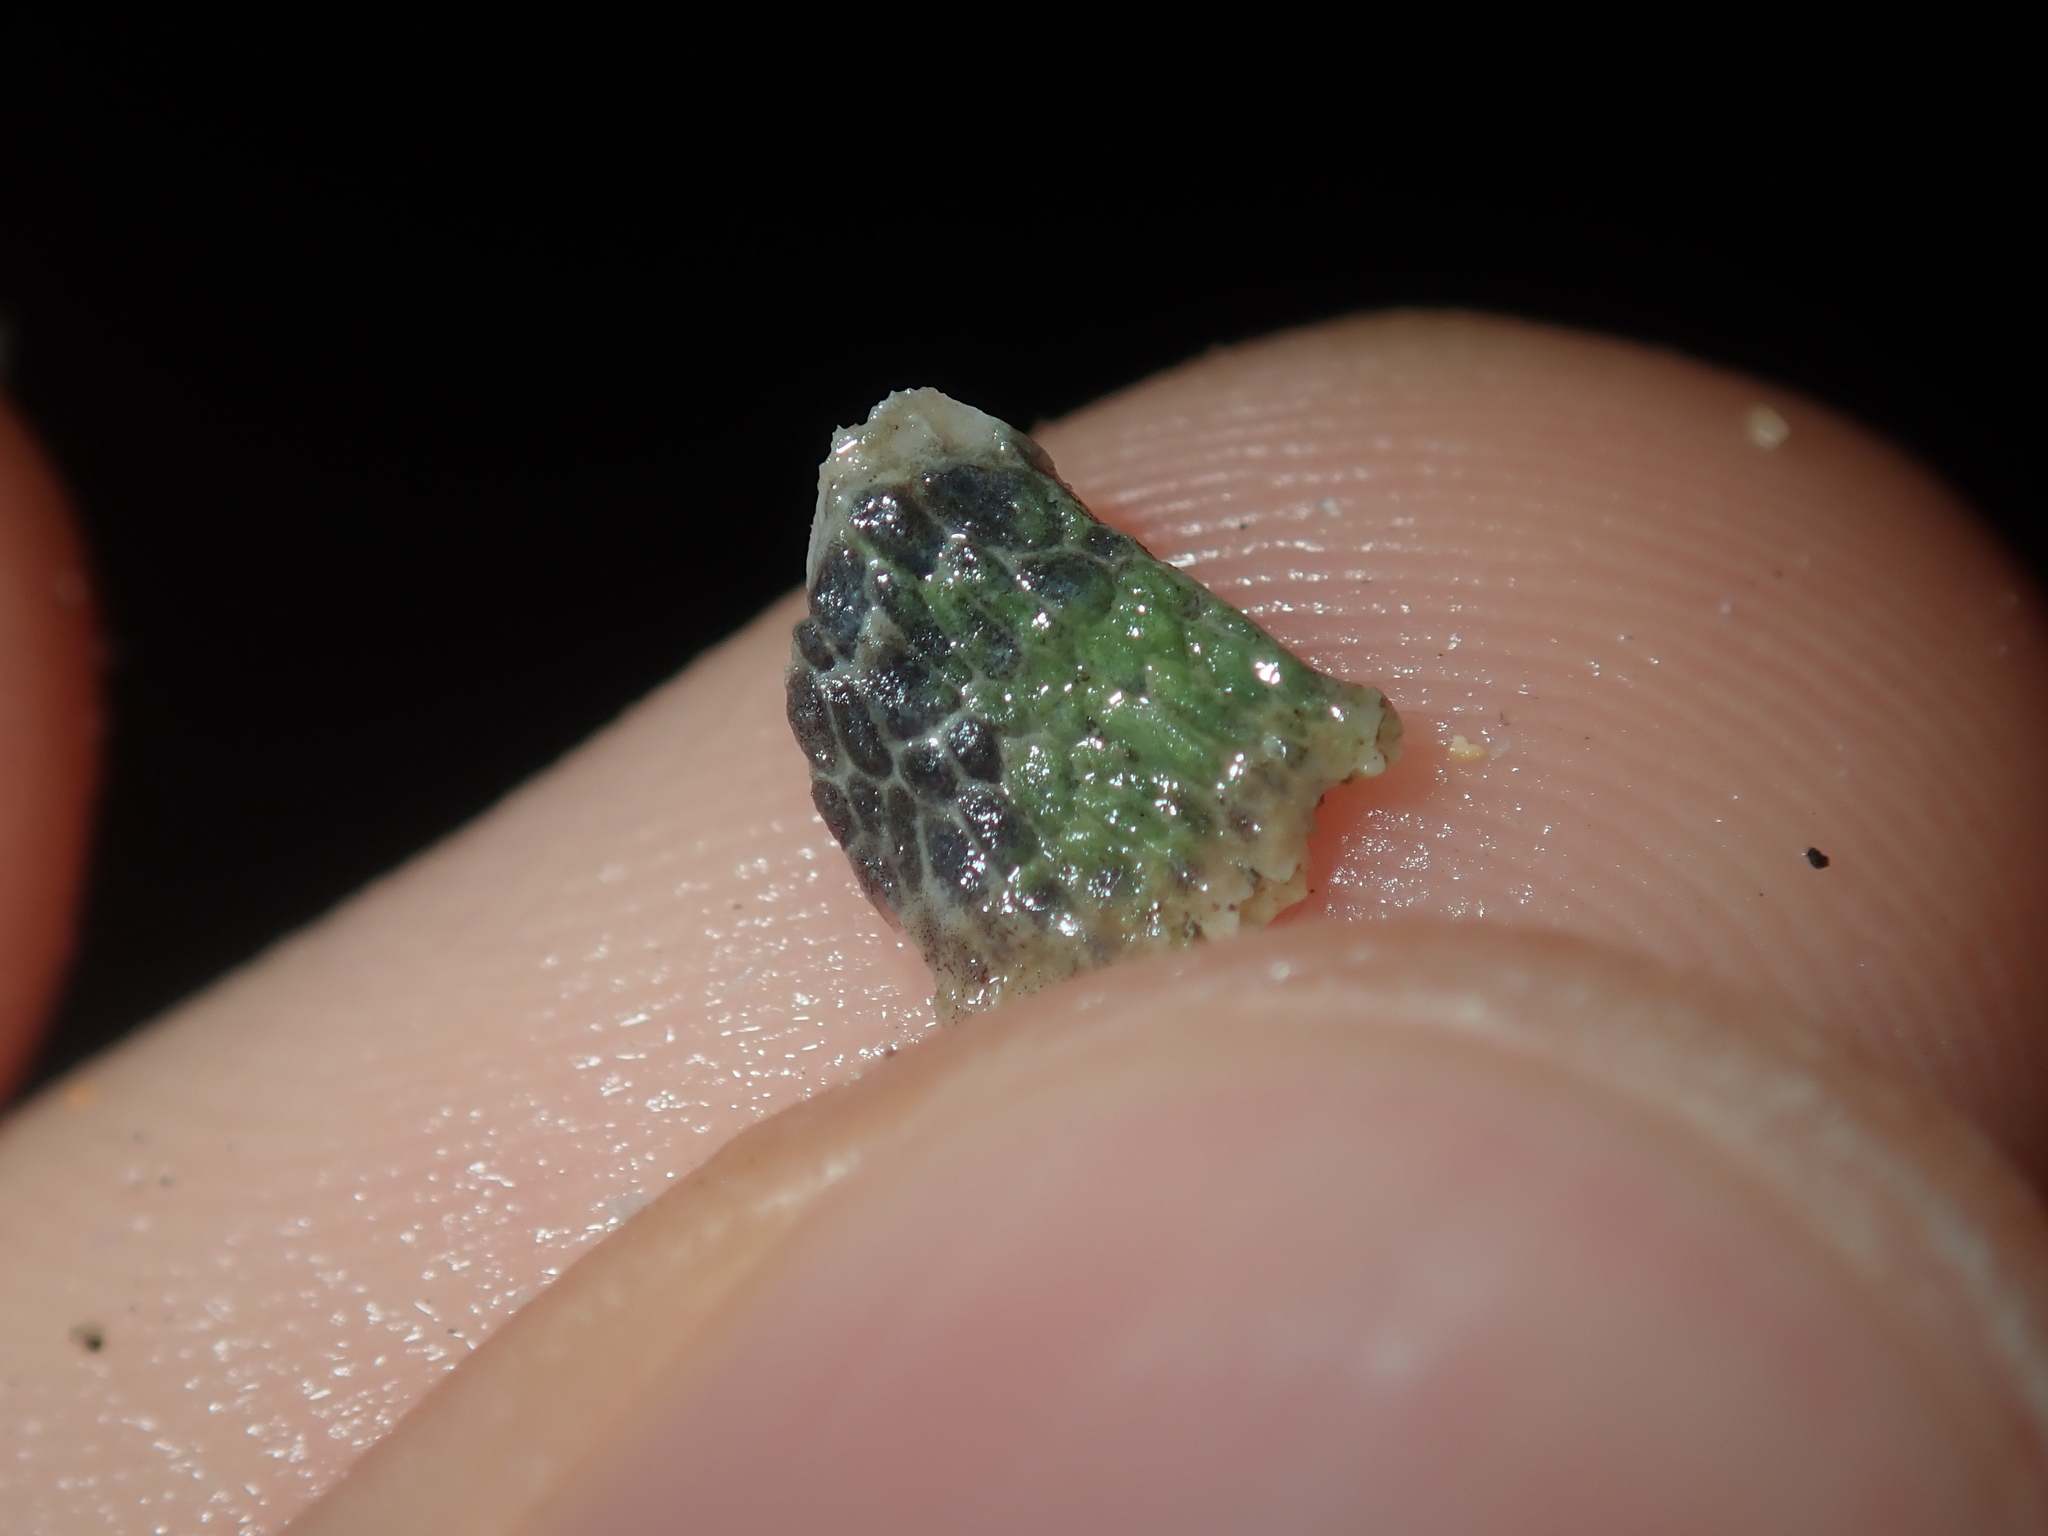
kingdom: Animalia
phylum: Arthropoda
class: Maxillopoda
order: Sessilia
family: Tetraclitidae
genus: Tetraclitella
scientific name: Tetraclitella purpurascens
